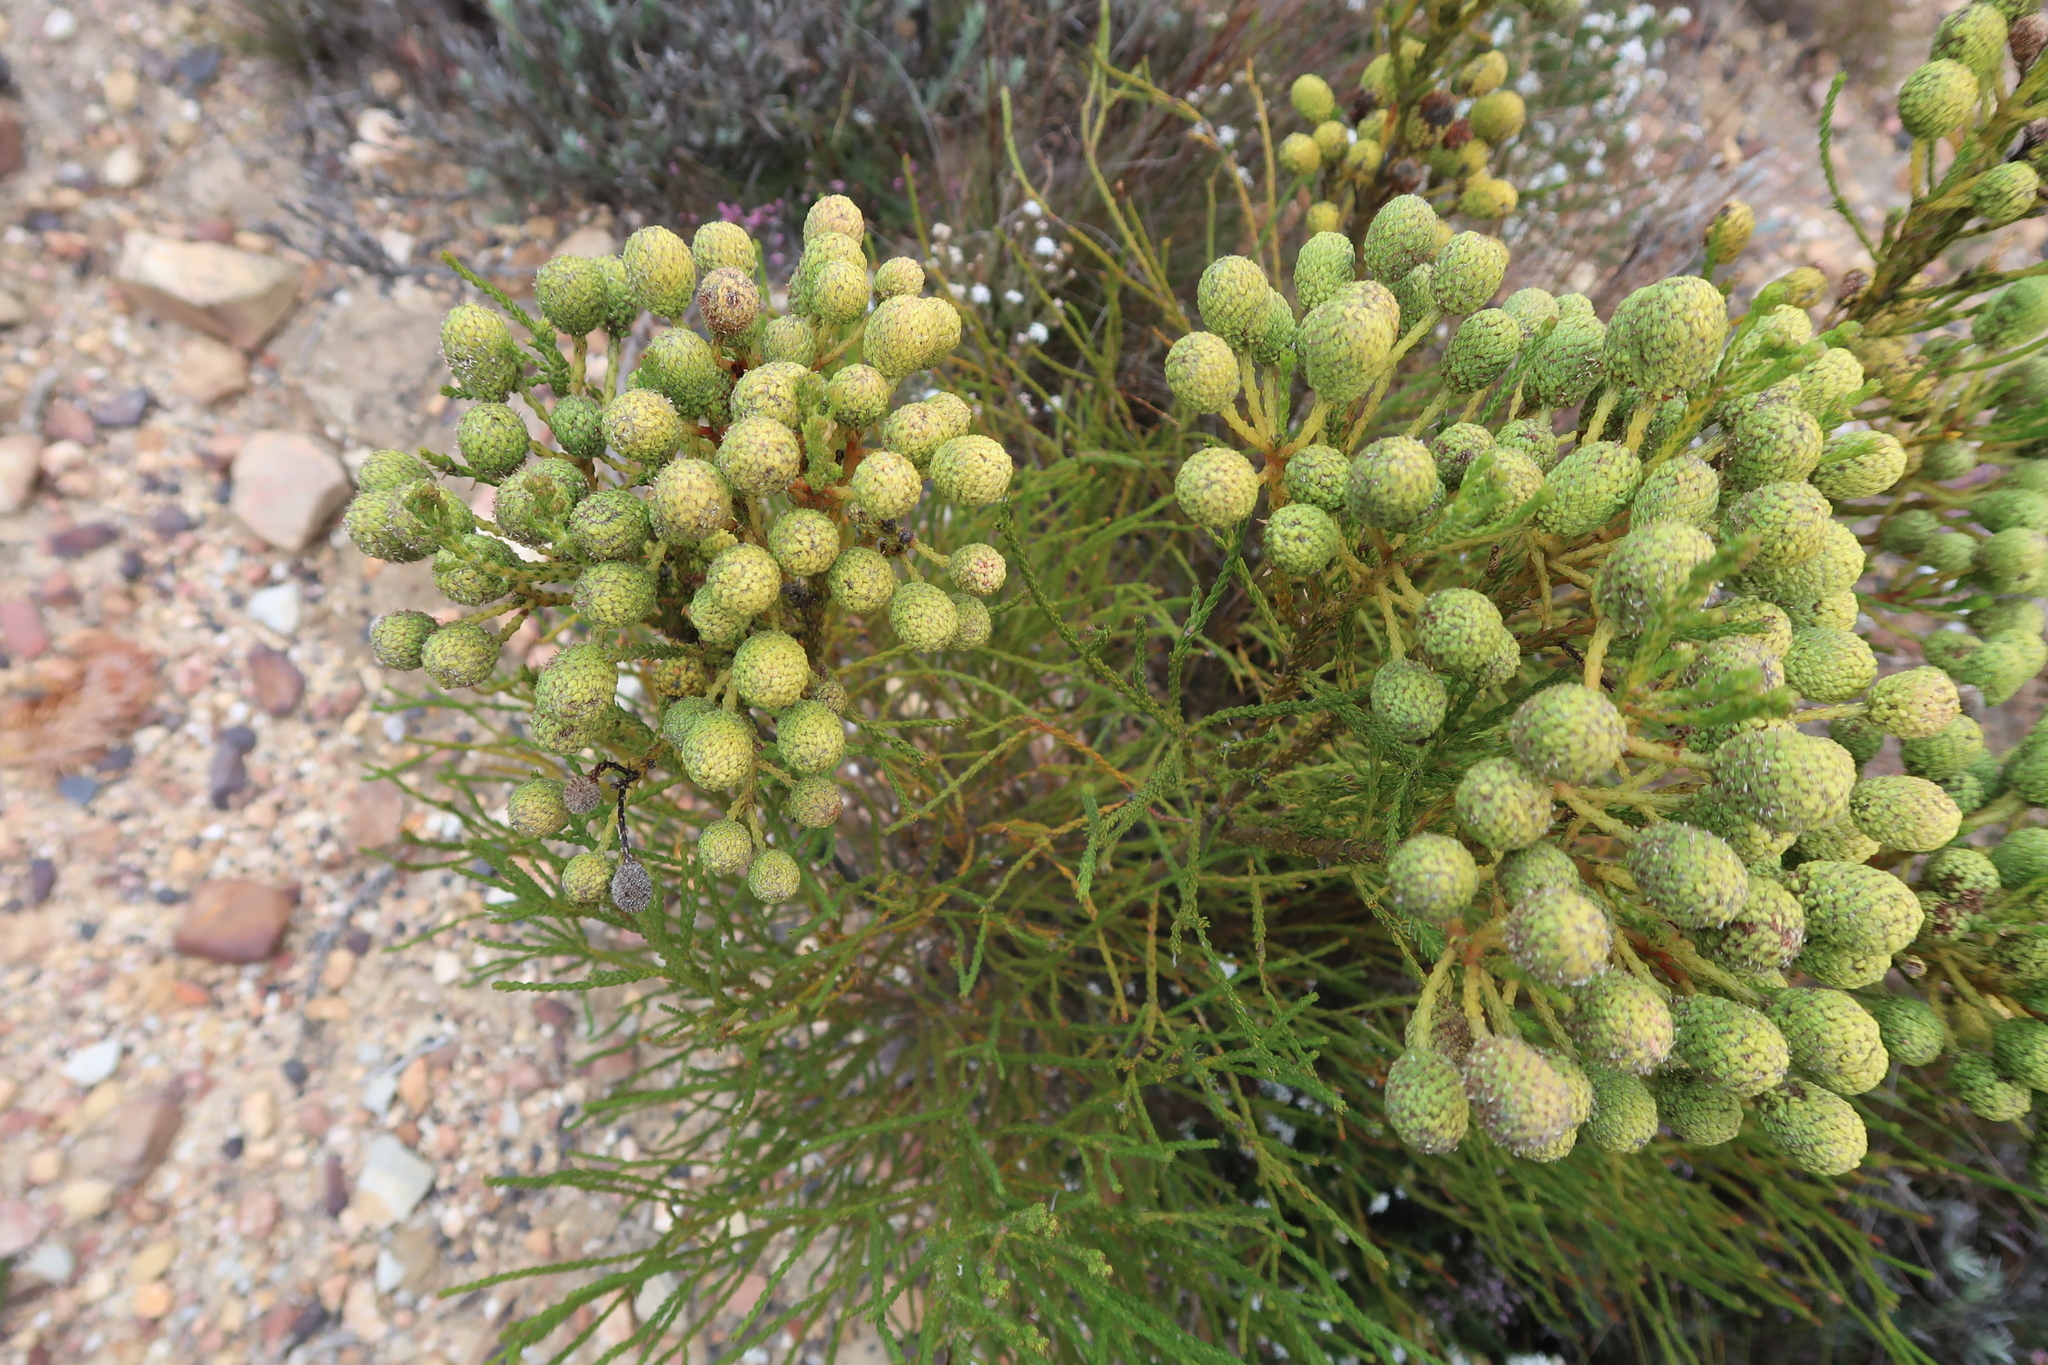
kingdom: Plantae
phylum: Tracheophyta
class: Magnoliopsida
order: Bruniales
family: Bruniaceae
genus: Berzelia
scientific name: Berzelia intermedia
